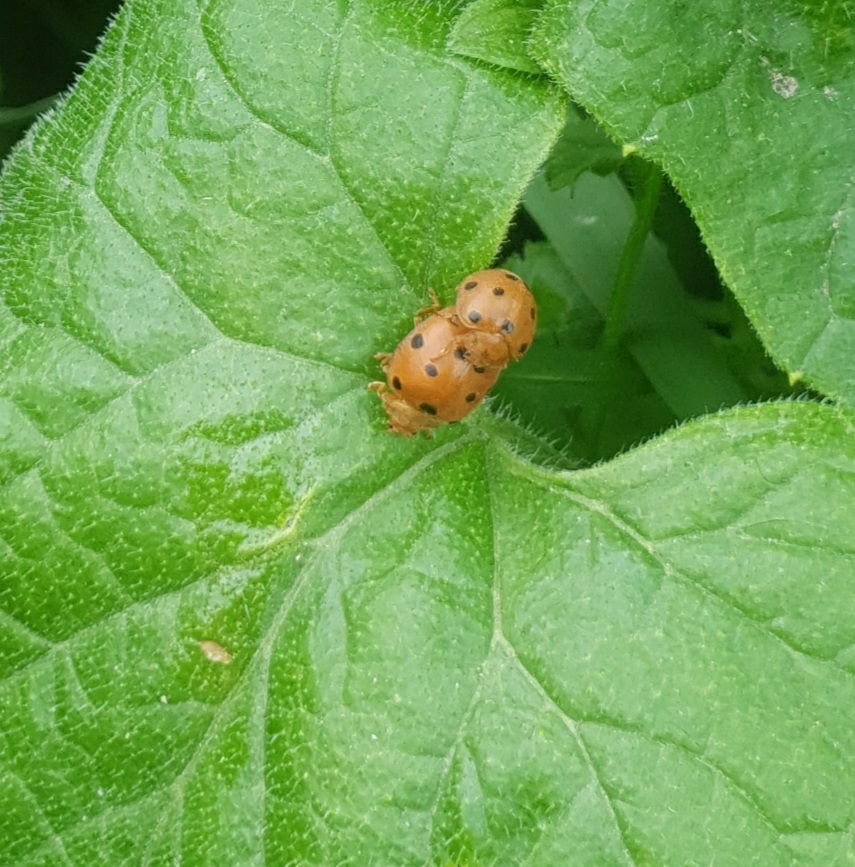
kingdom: Animalia
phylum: Arthropoda
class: Insecta
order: Coleoptera
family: Coccinellidae
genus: Henosepilachna
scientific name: Henosepilachna argus
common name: Bryony ladybird
